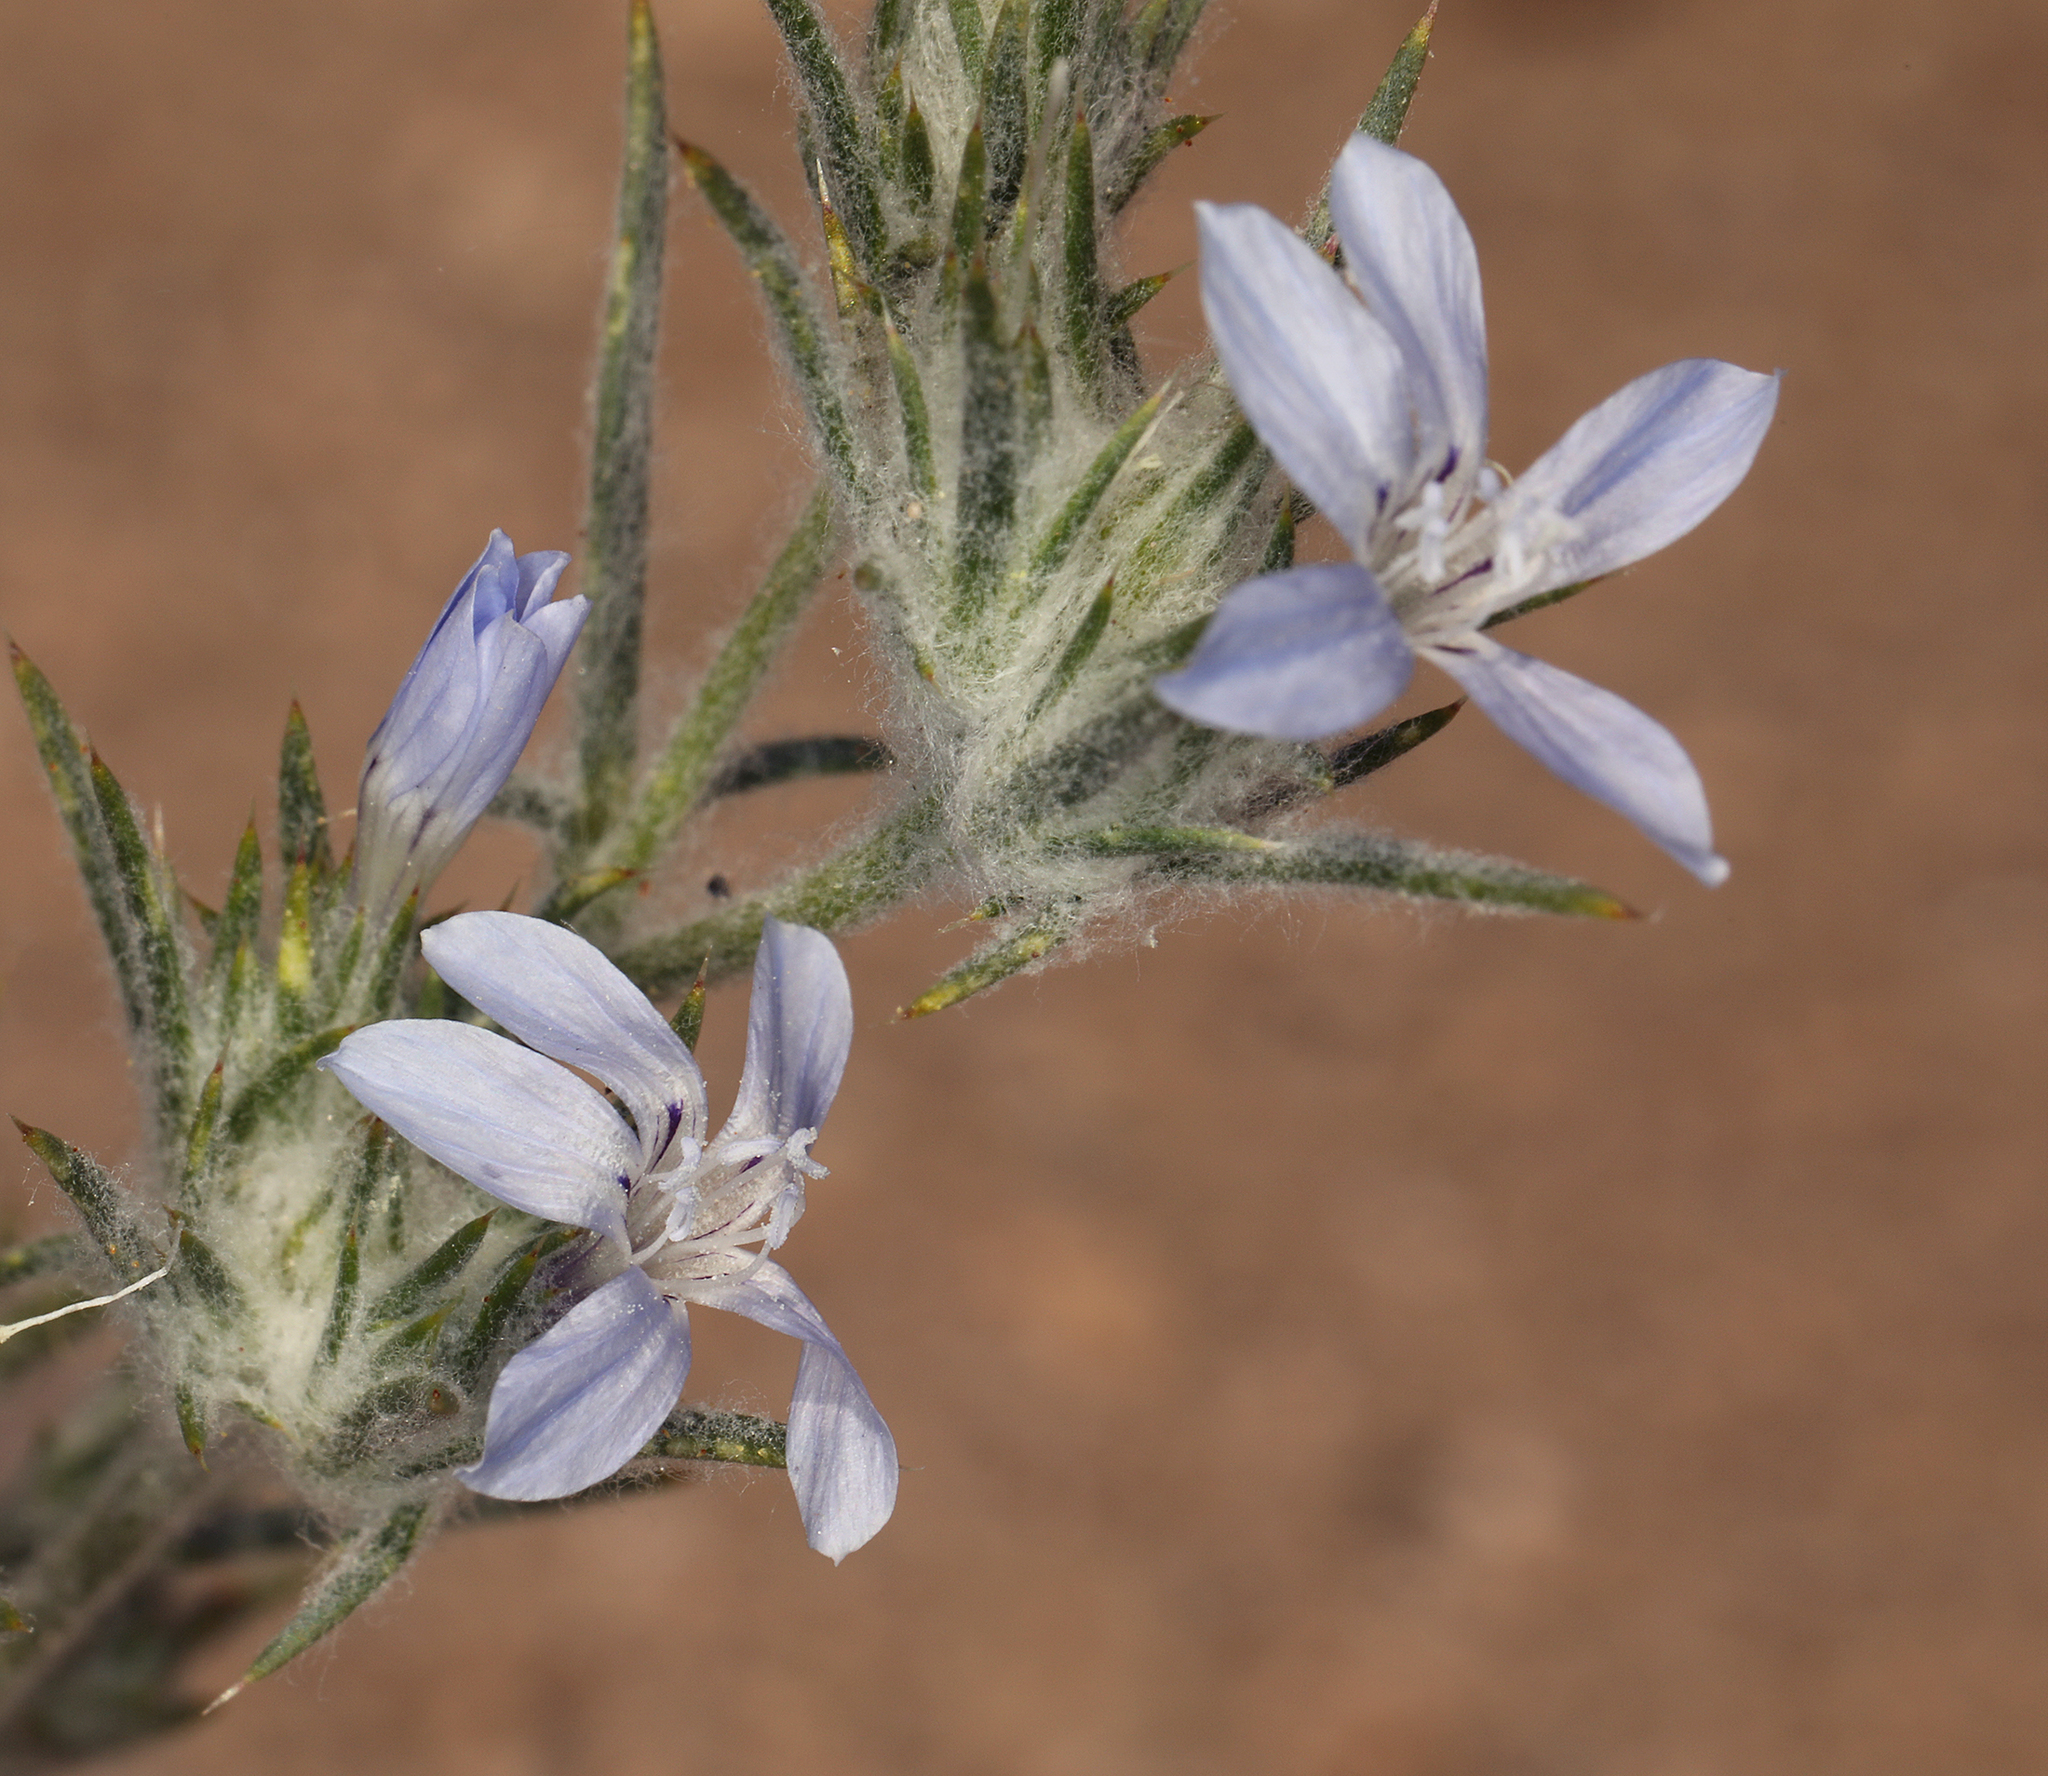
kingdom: Plantae
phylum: Tracheophyta
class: Magnoliopsida
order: Ericales
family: Polemoniaceae
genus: Eriastrum
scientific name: Eriastrum wilcoxii
